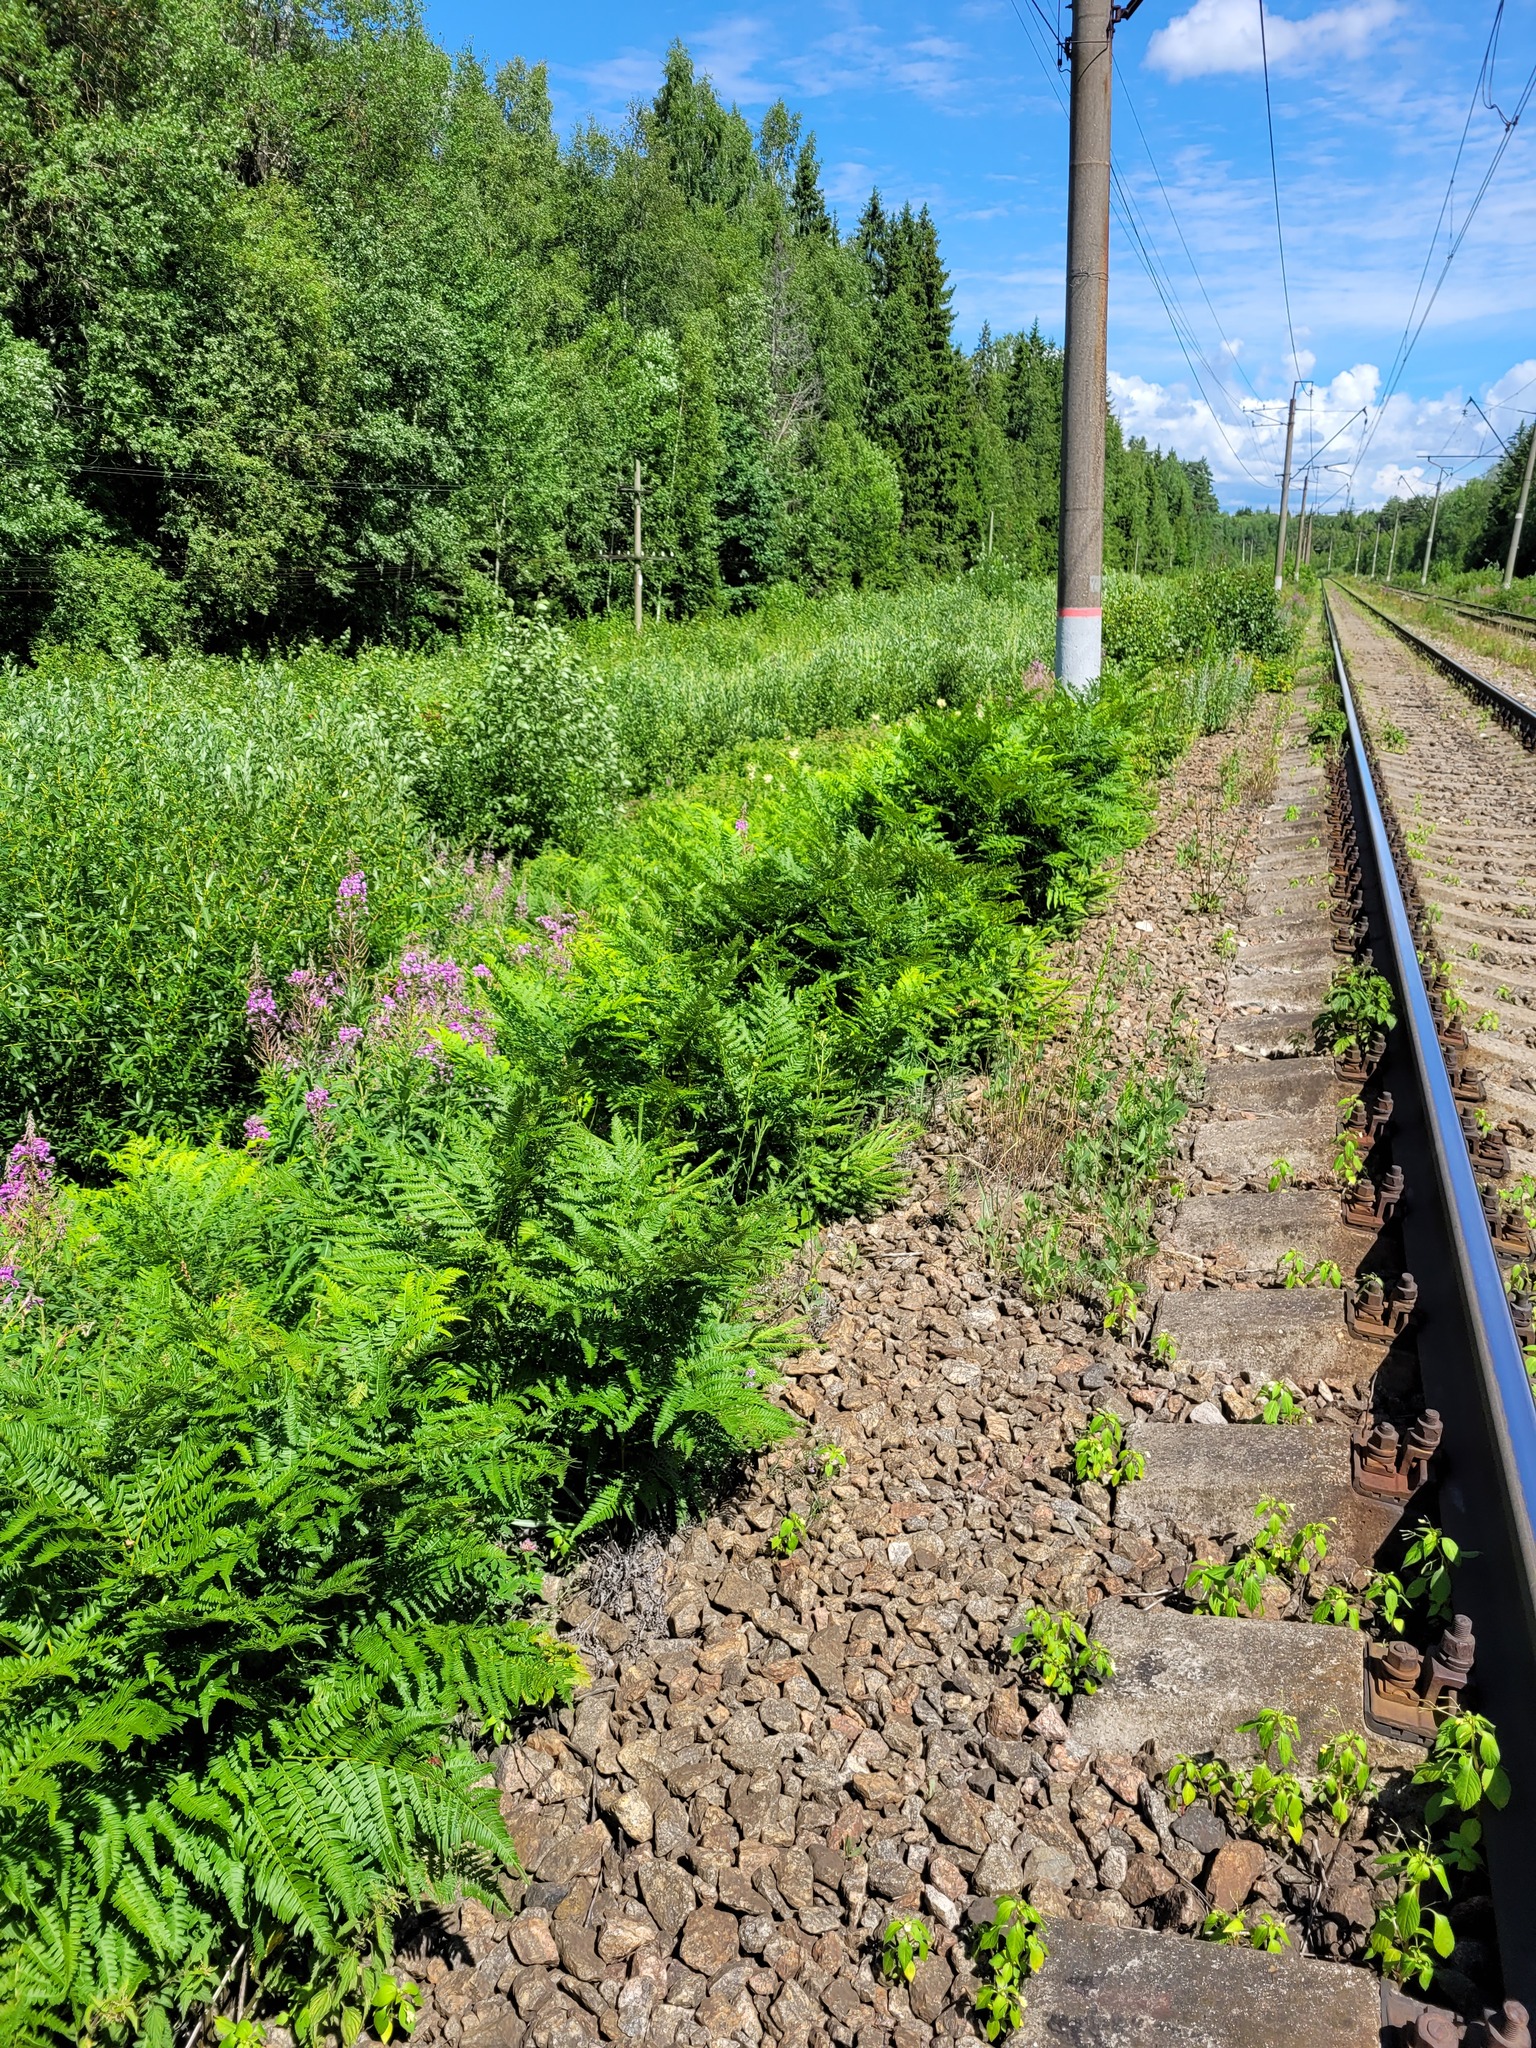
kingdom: Plantae
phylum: Tracheophyta
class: Polypodiopsida
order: Polypodiales
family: Dennstaedtiaceae
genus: Pteridium
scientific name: Pteridium aquilinum
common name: Bracken
